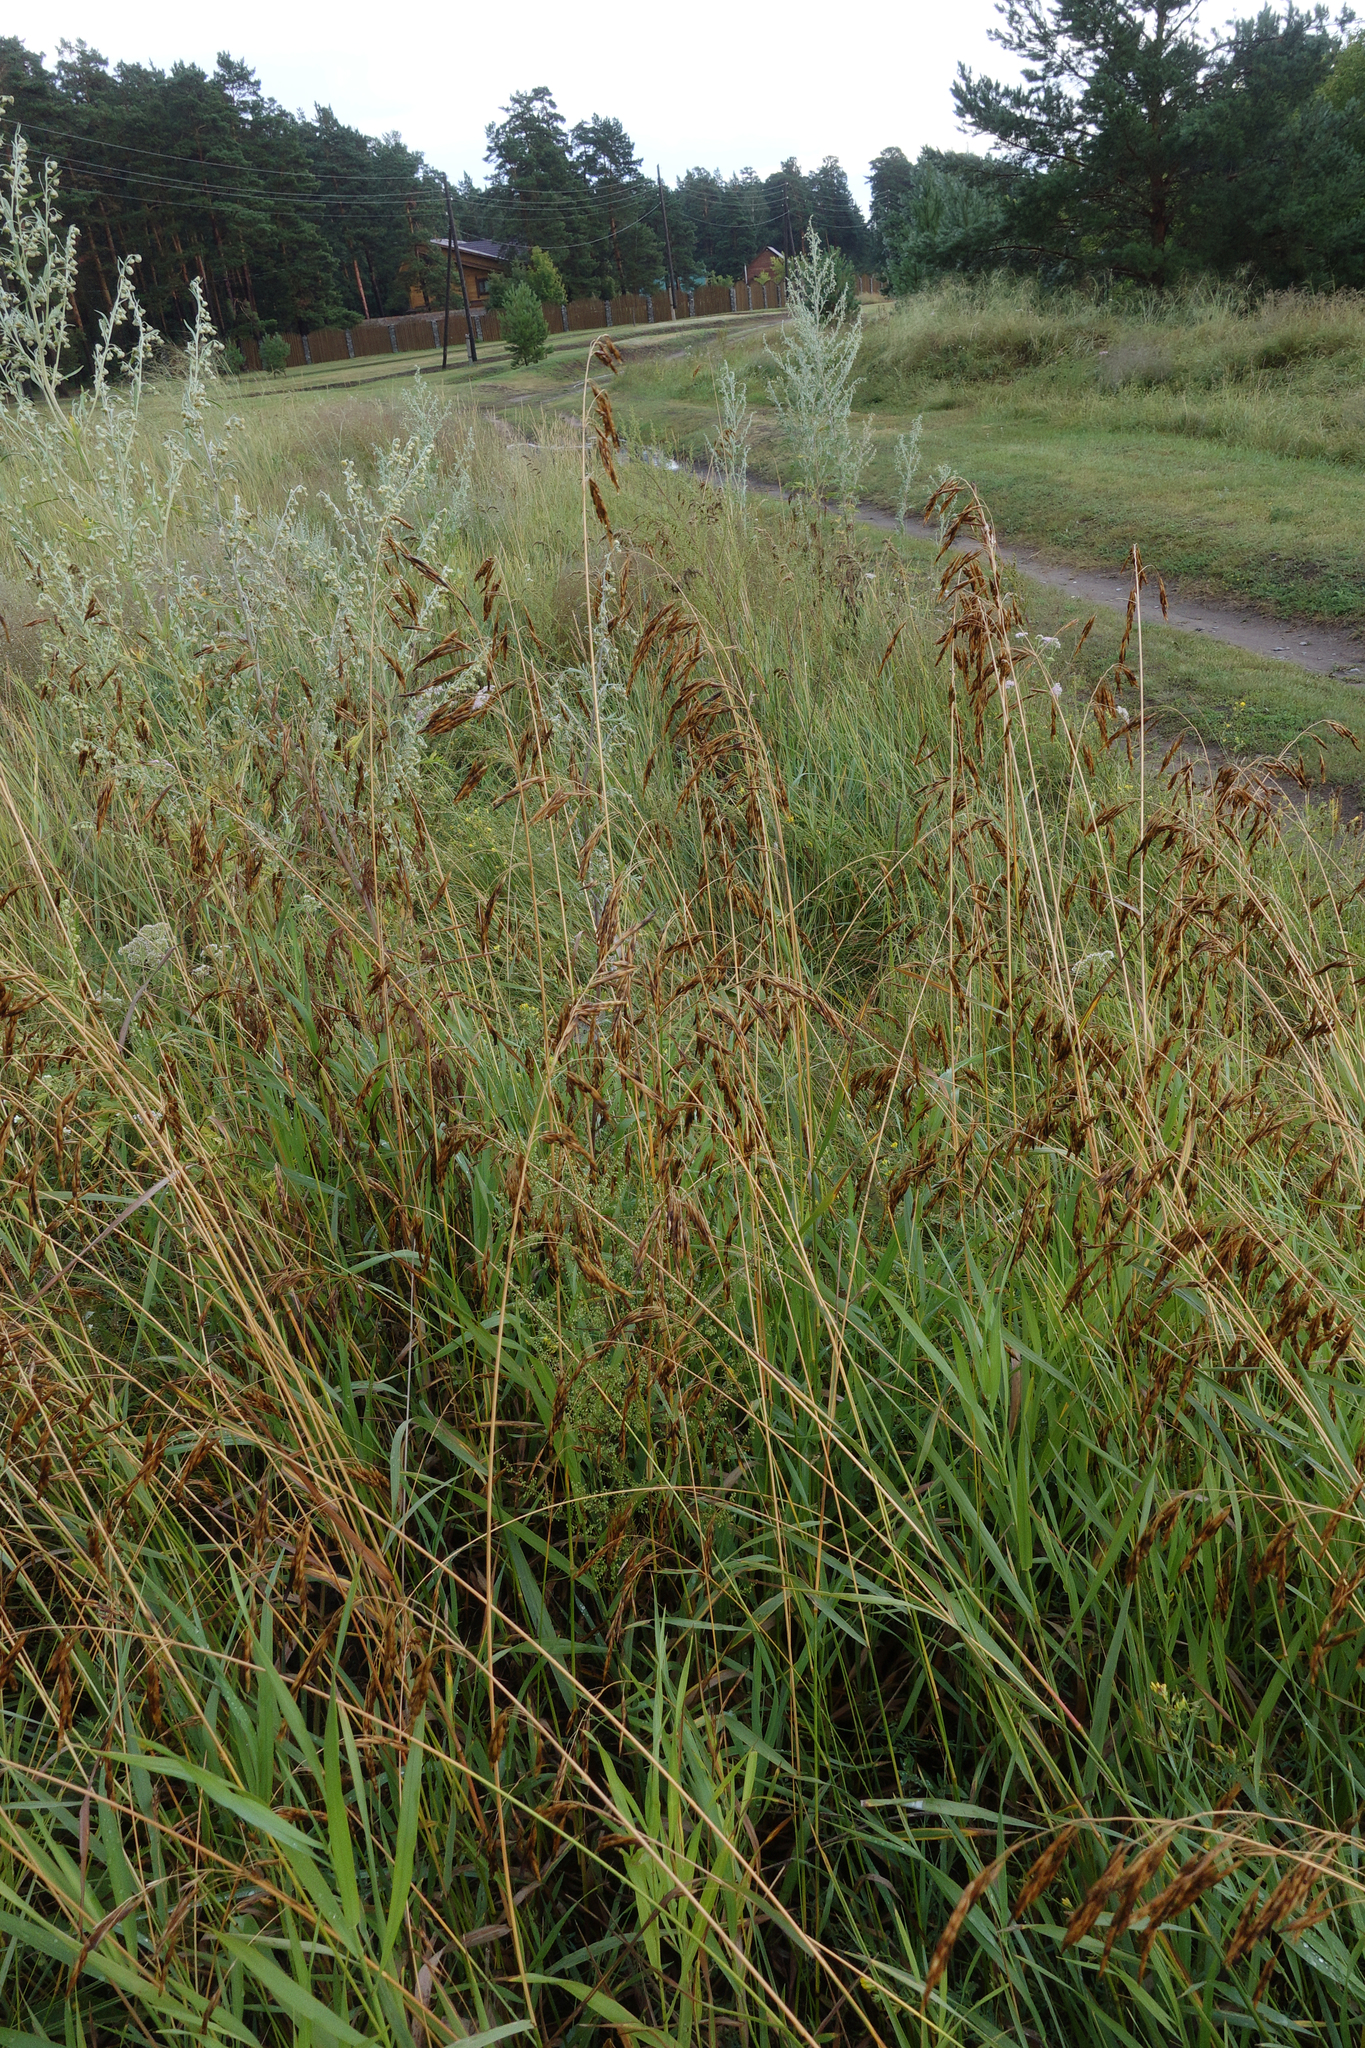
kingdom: Plantae
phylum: Tracheophyta
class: Liliopsida
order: Poales
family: Poaceae
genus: Bromus
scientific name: Bromus inermis
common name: Smooth brome
